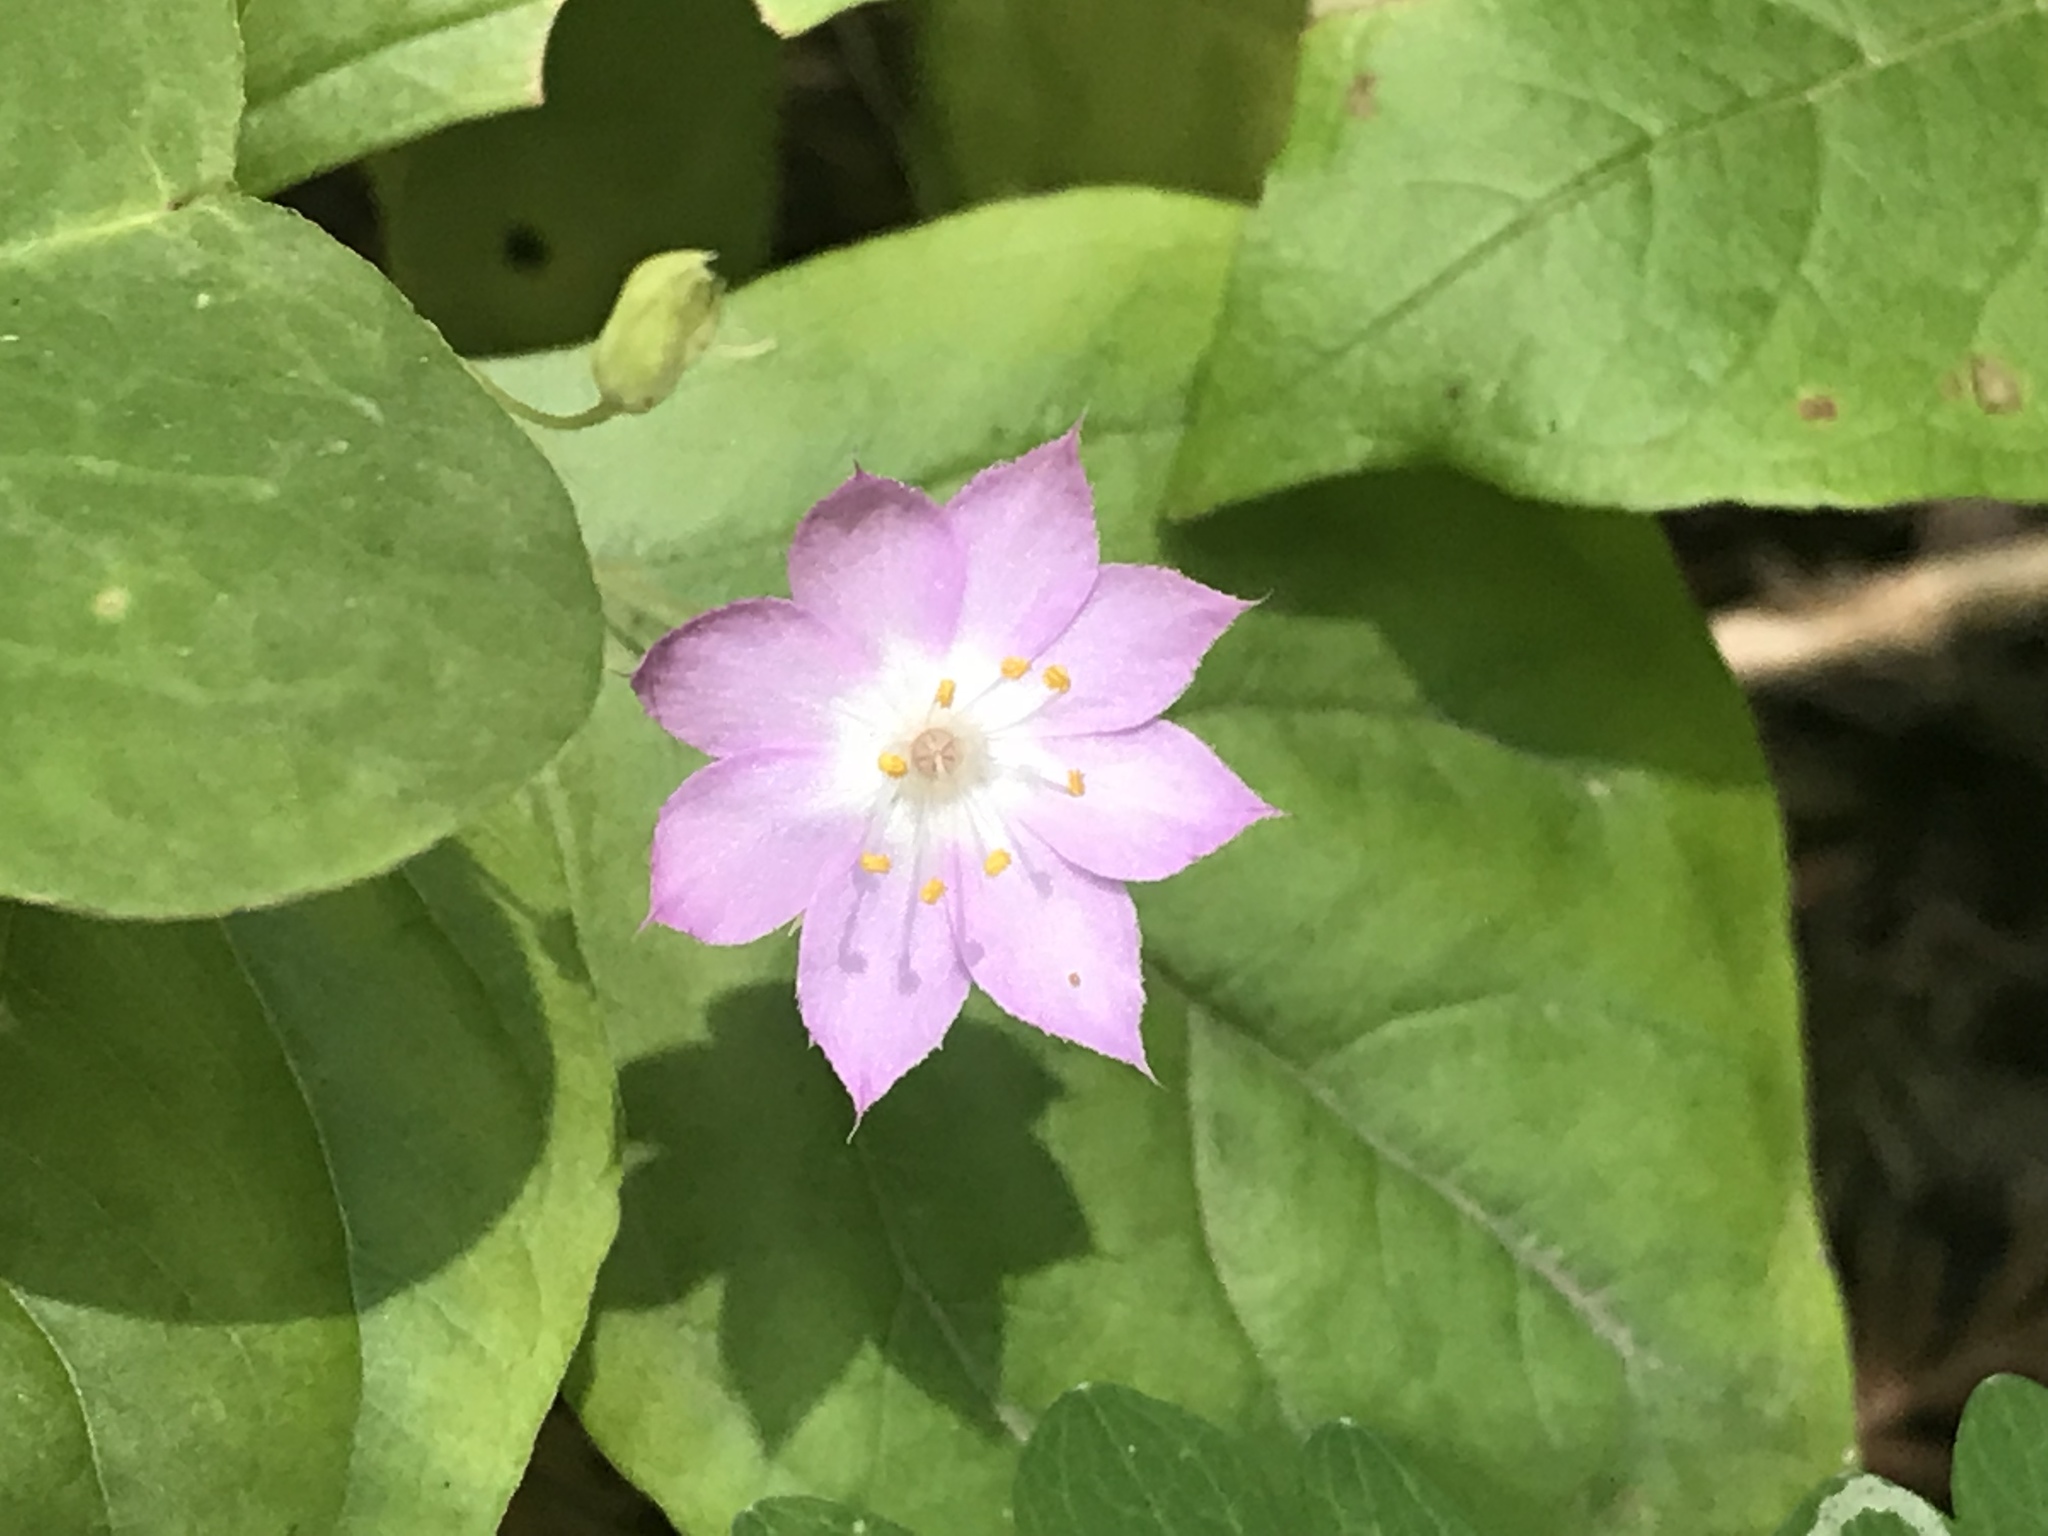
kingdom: Plantae
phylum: Tracheophyta
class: Magnoliopsida
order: Ericales
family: Primulaceae
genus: Lysimachia
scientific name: Lysimachia latifolia
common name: Pacific starflower
